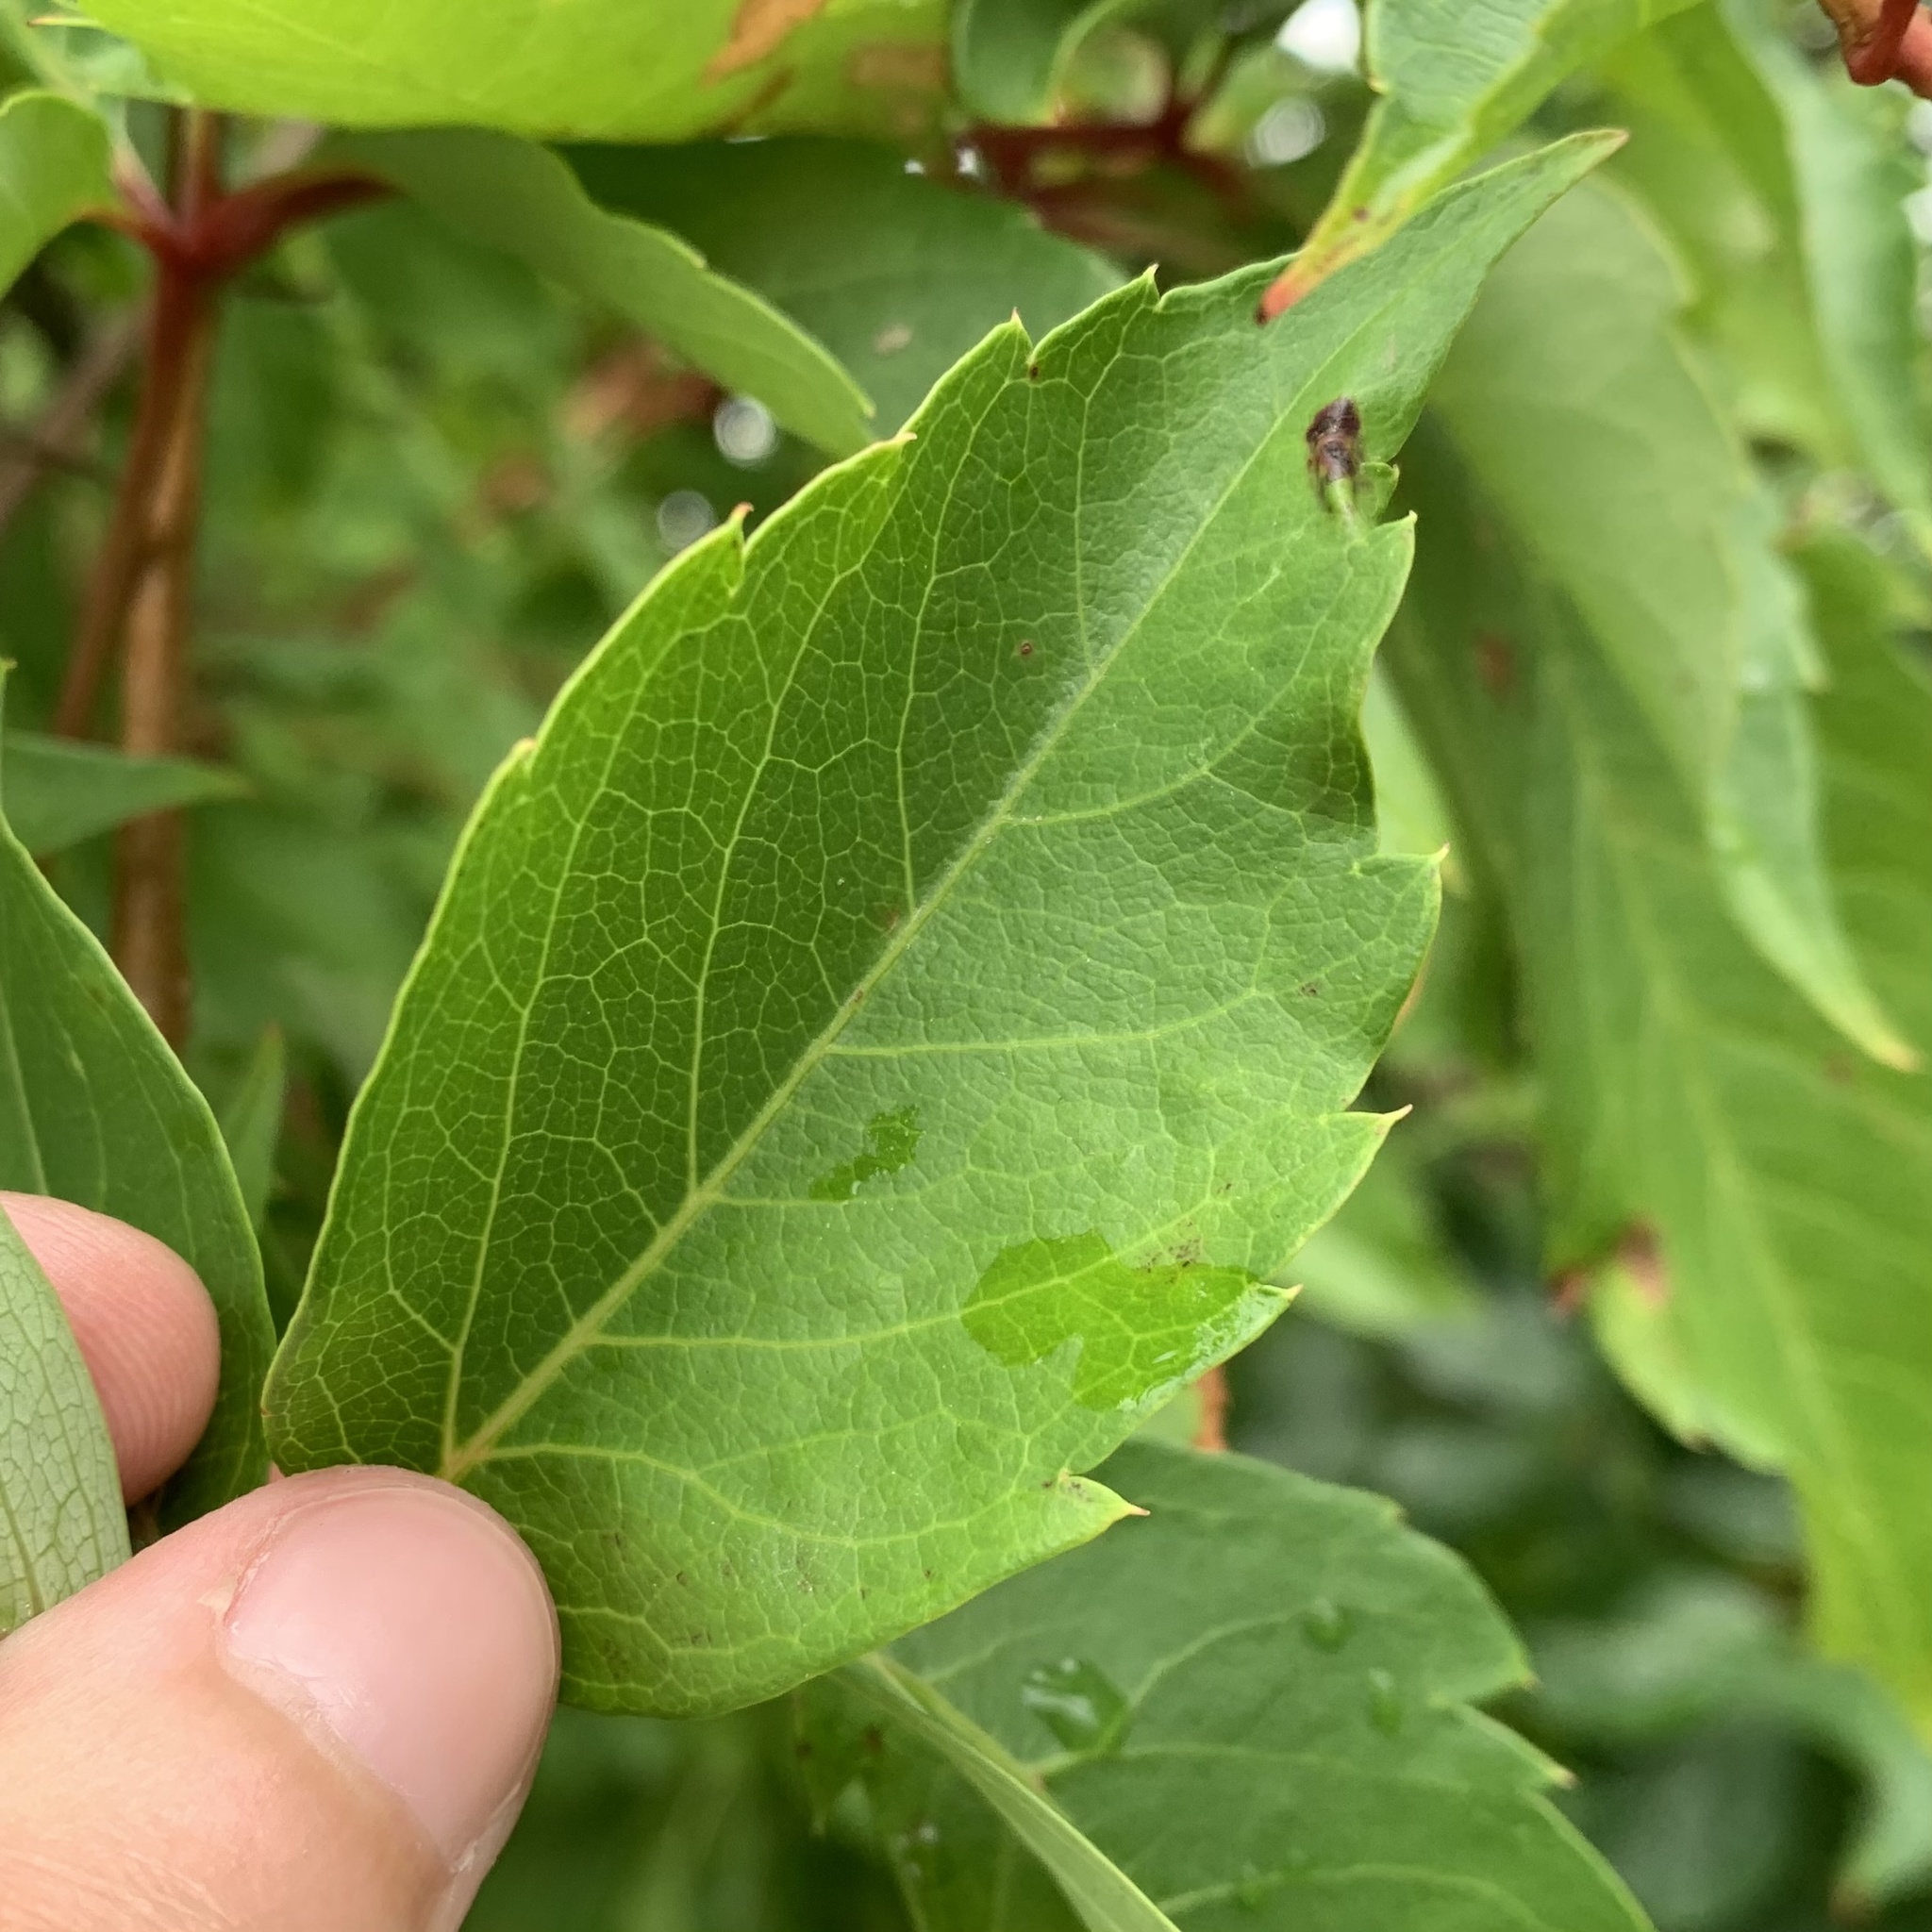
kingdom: Animalia
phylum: Arthropoda
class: Insecta
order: Lepidoptera
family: Gracillariidae
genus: Phyllocnistis
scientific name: Phyllocnistis ampelopsiella
